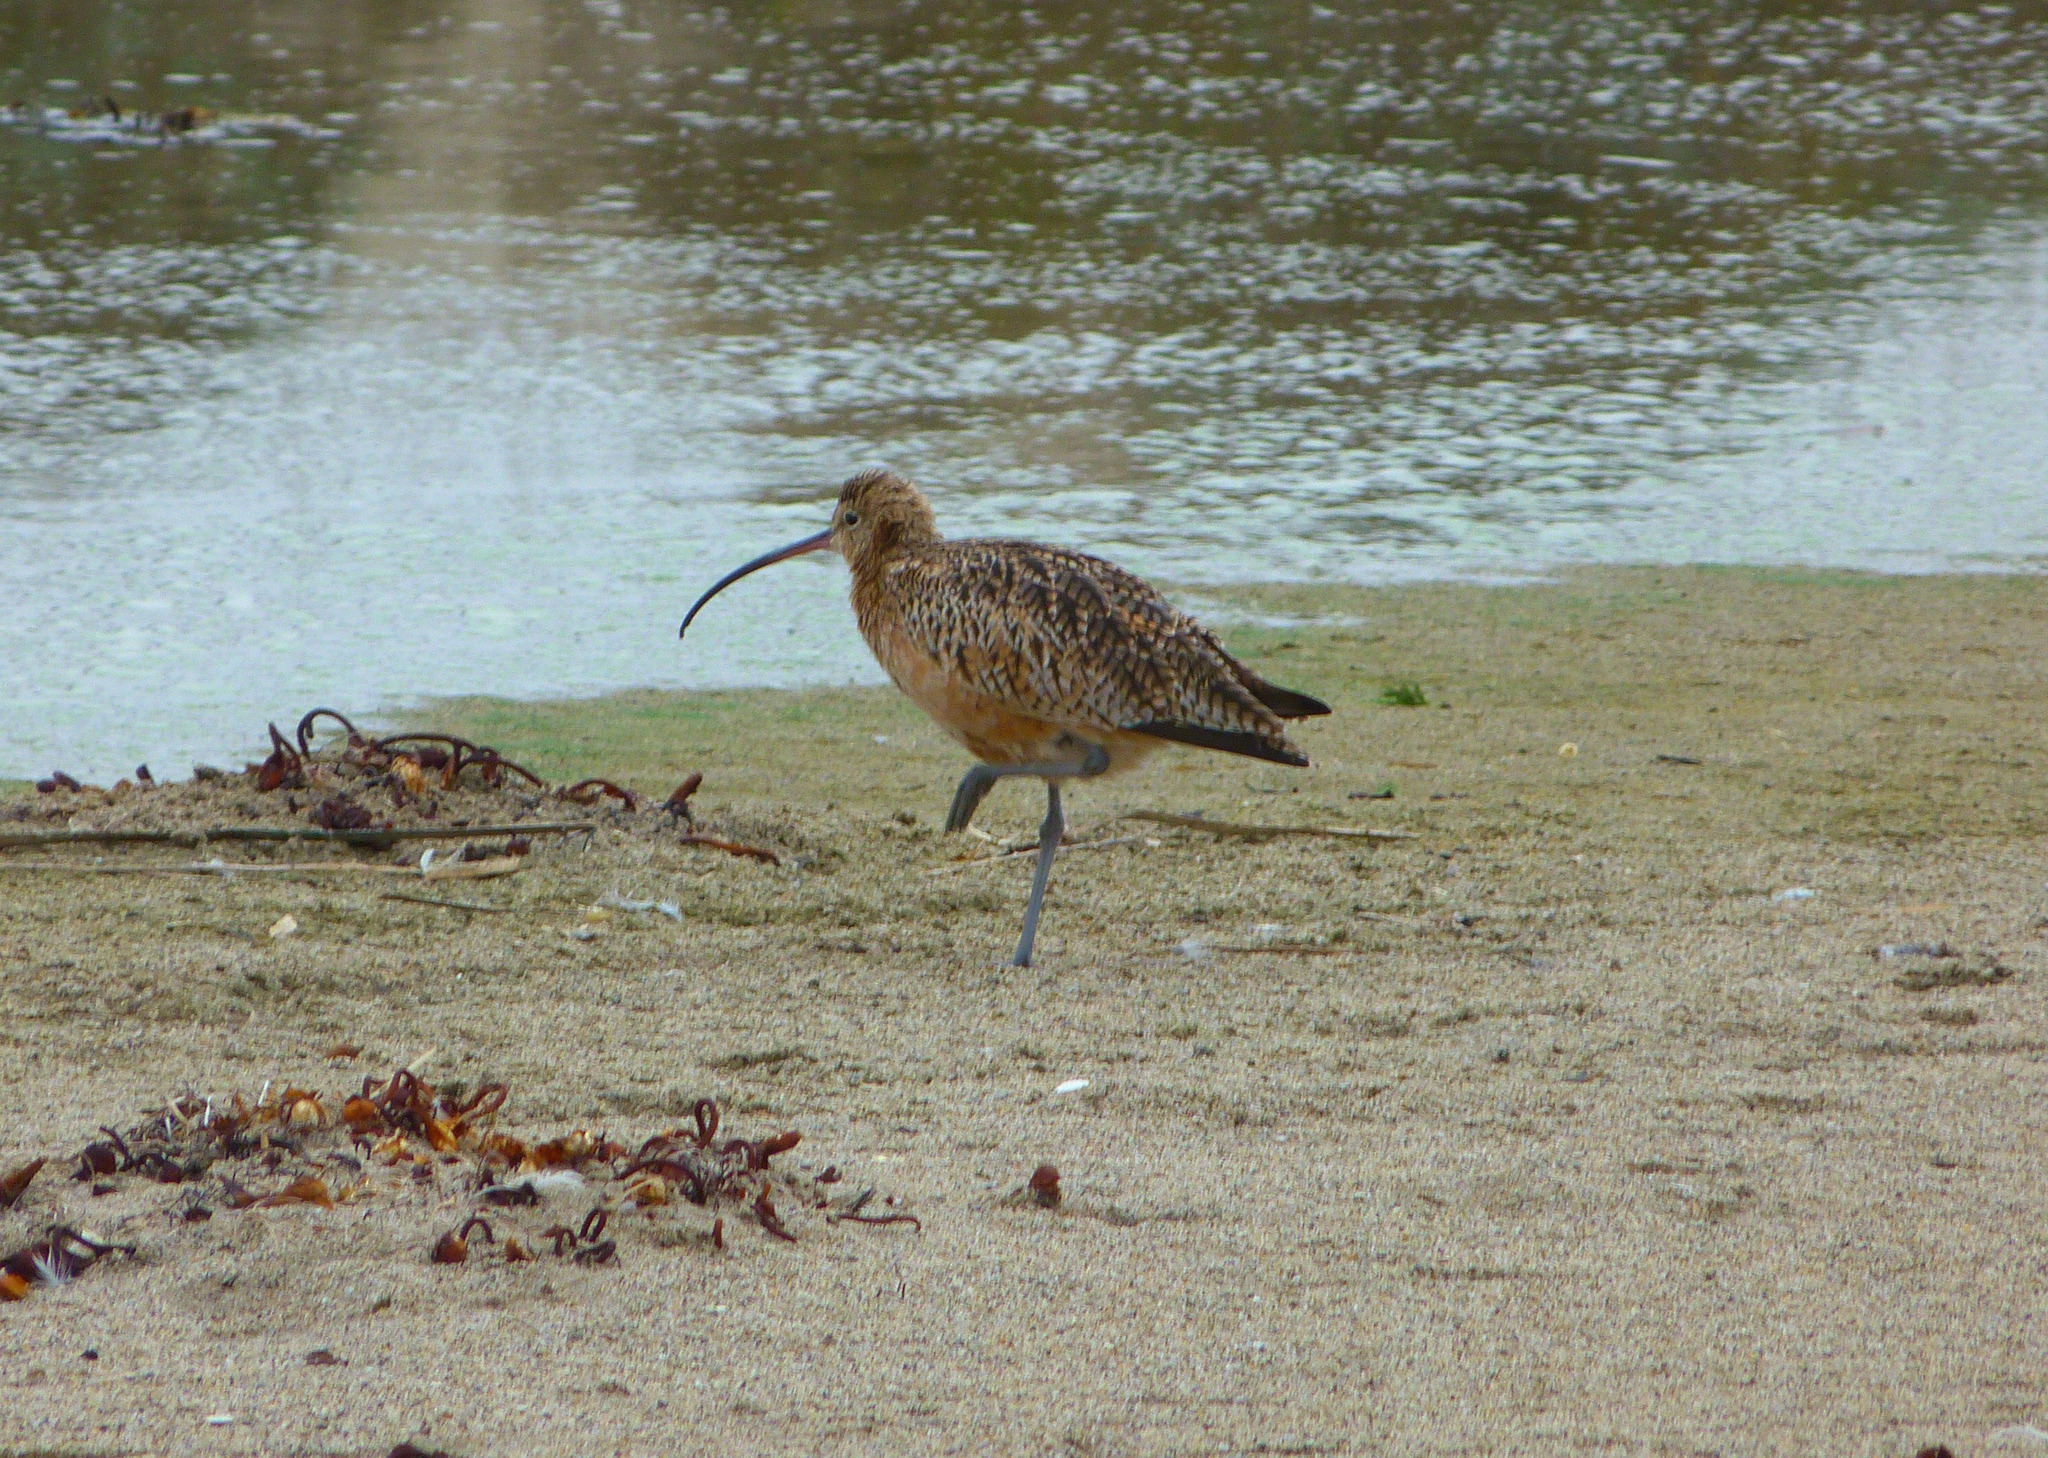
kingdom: Animalia
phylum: Chordata
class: Aves
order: Charadriiformes
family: Scolopacidae
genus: Numenius
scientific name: Numenius americanus
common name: Long-billed curlew
